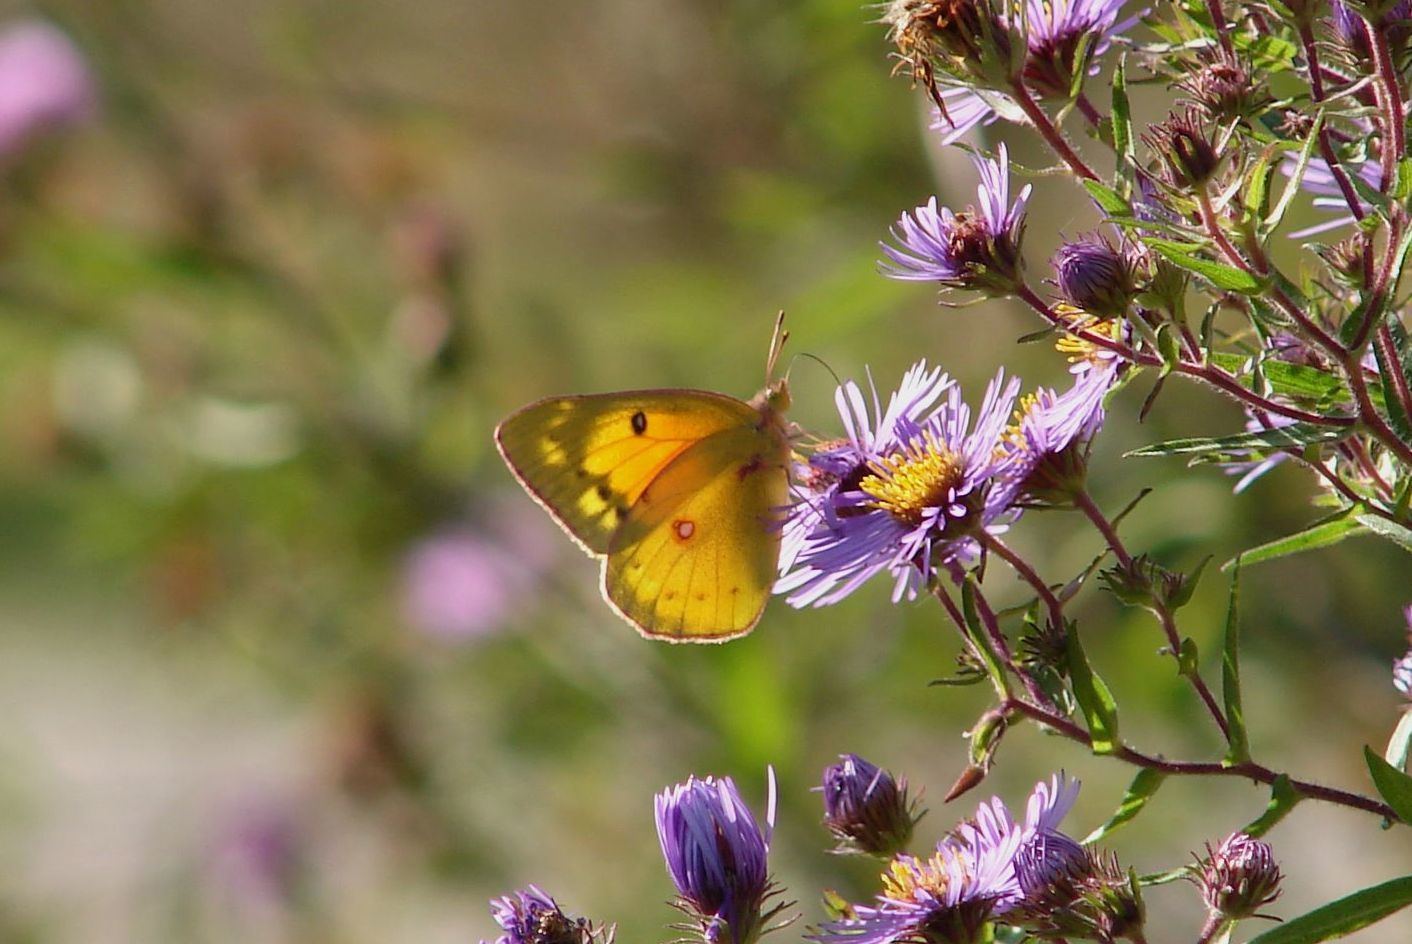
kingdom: Animalia
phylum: Arthropoda
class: Insecta
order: Lepidoptera
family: Pieridae
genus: Colias
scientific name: Colias eurytheme
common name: Alfalfa butterfly
